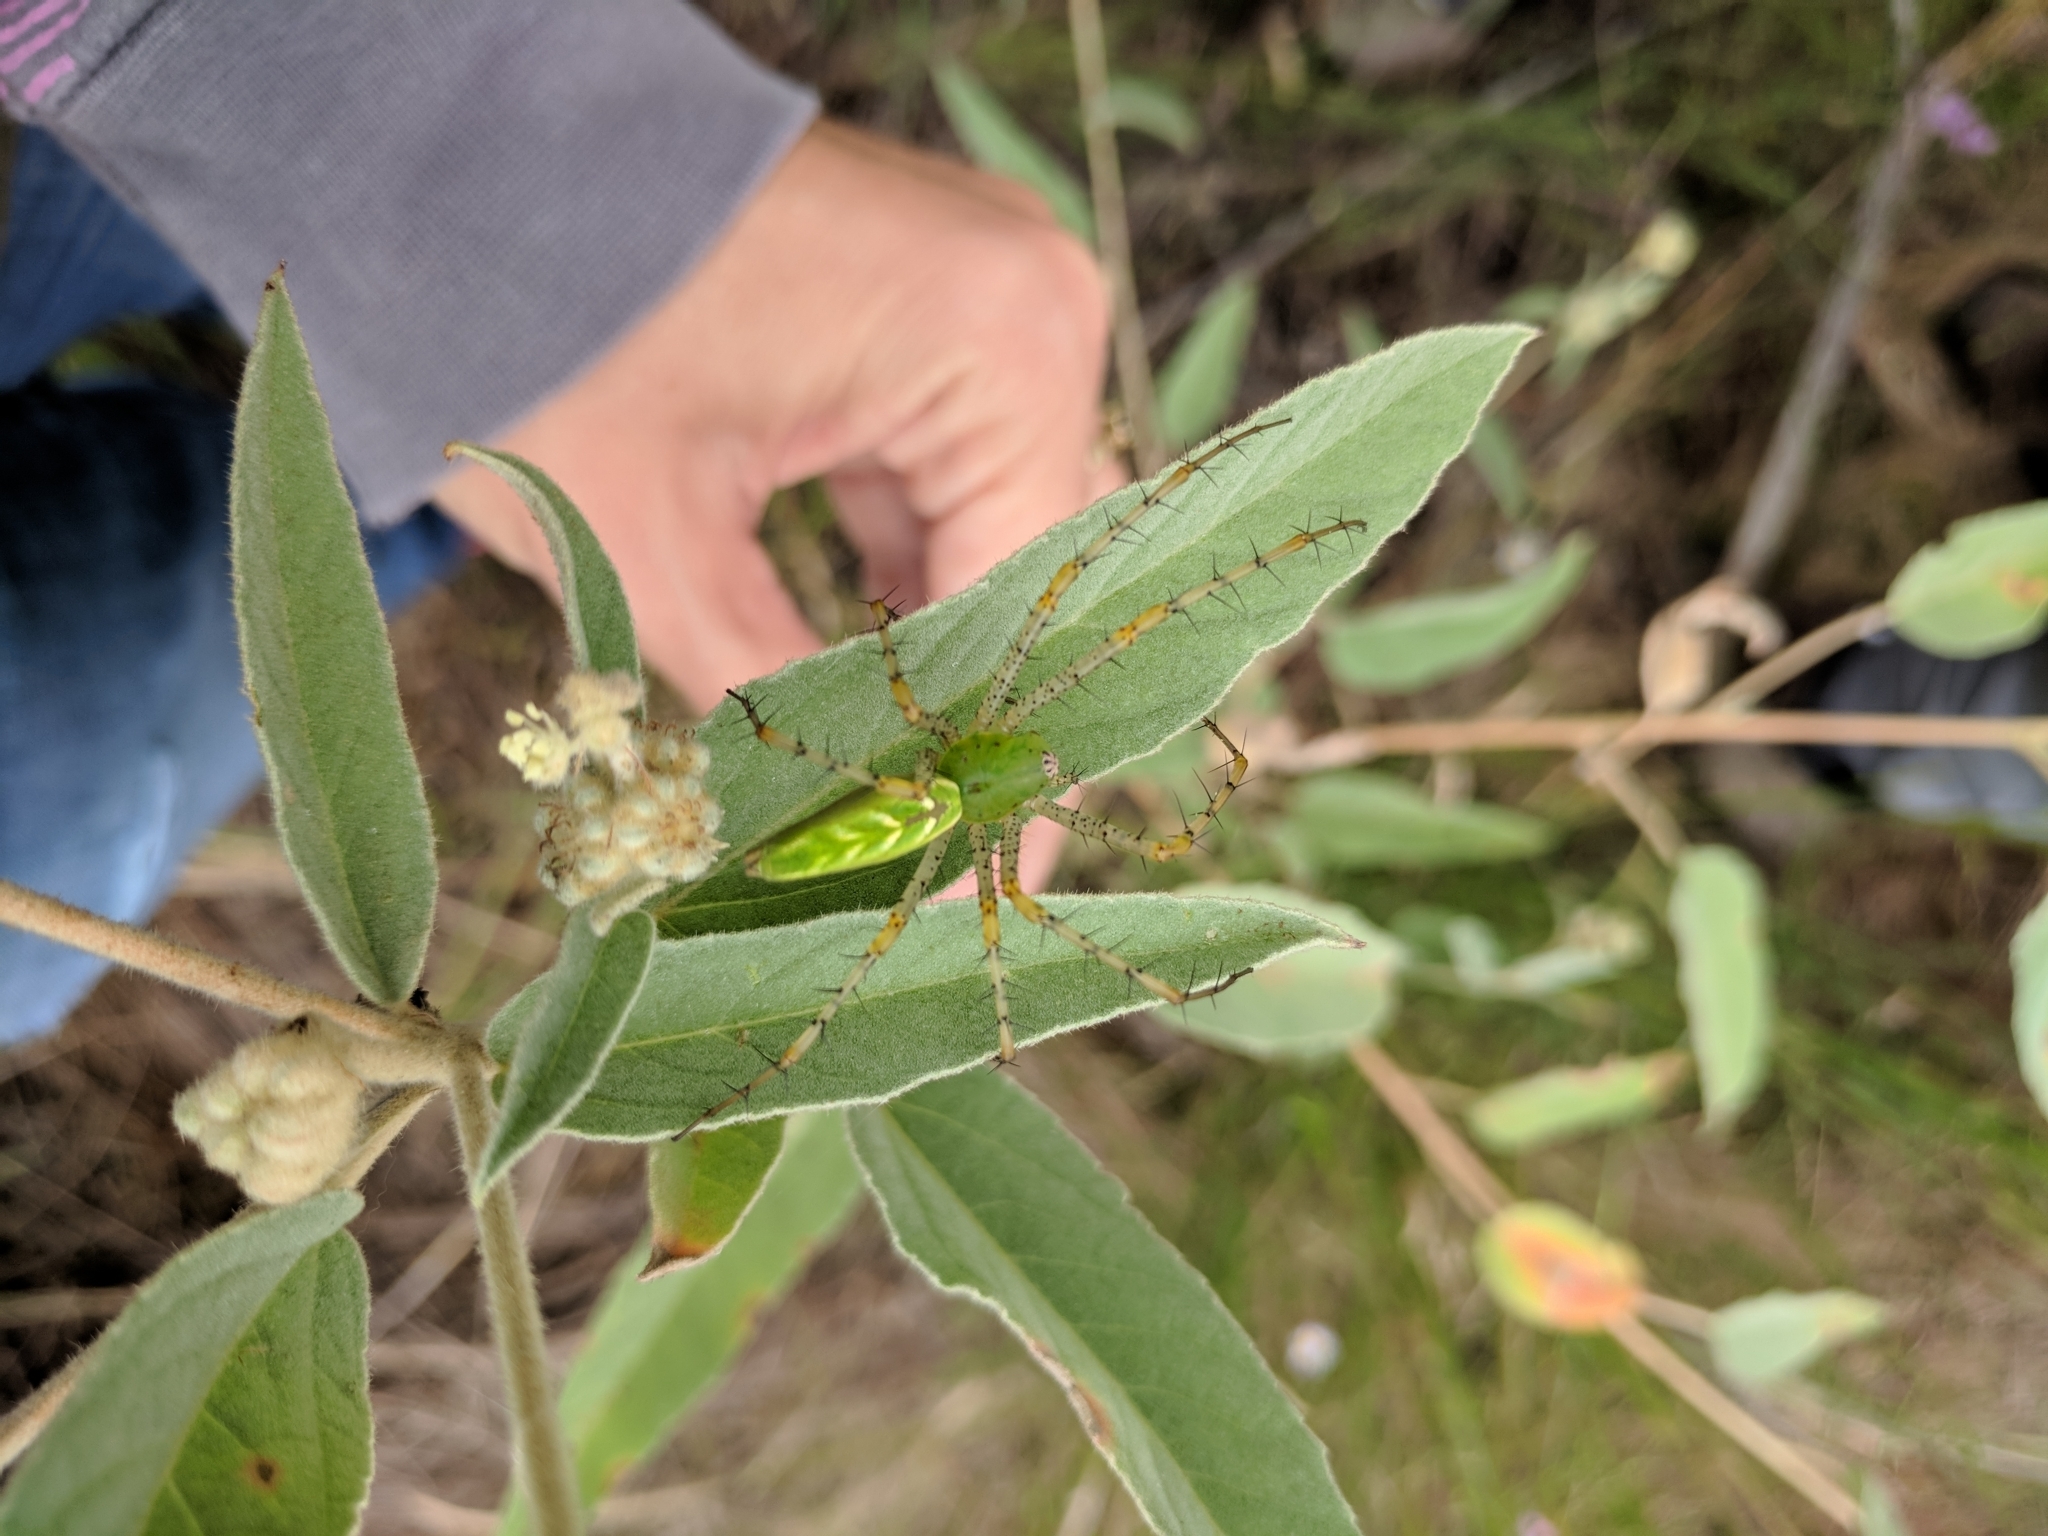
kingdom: Animalia
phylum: Arthropoda
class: Arachnida
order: Araneae
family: Oxyopidae
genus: Peucetia
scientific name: Peucetia viridans
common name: Lynx spiders
